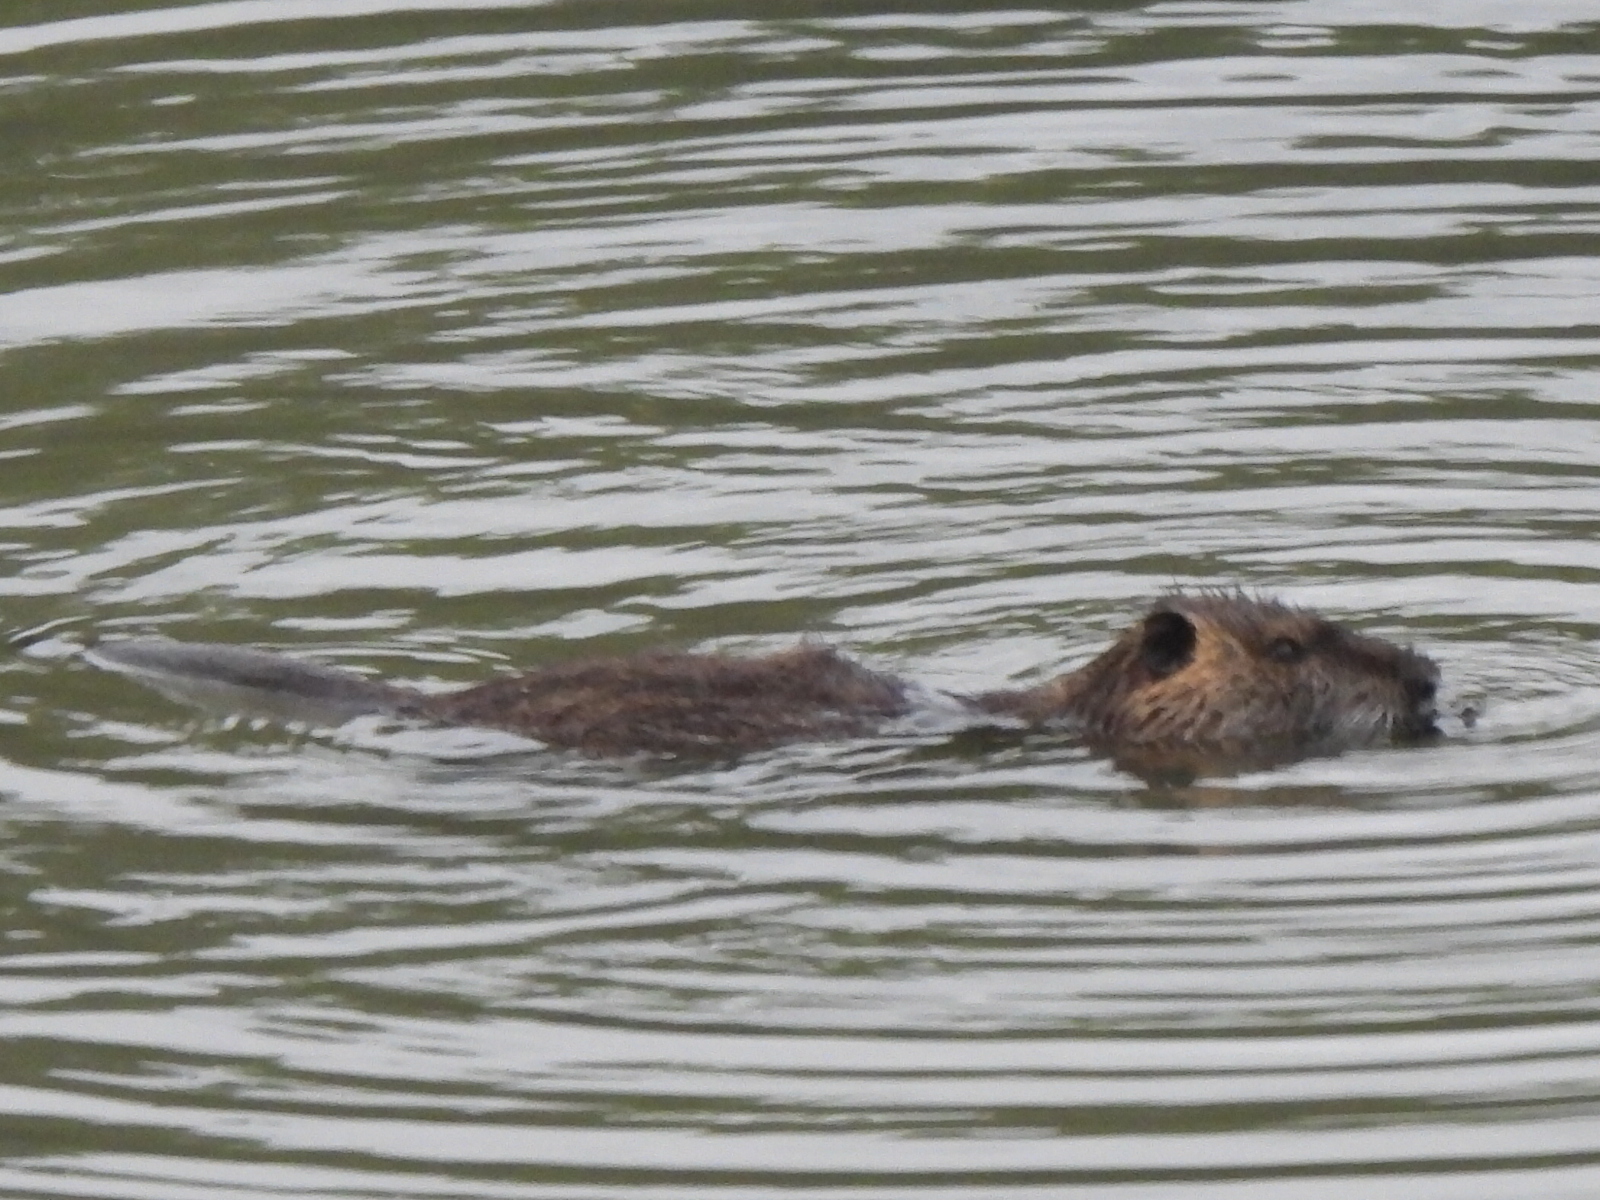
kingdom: Animalia
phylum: Chordata
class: Mammalia
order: Rodentia
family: Myocastoridae
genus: Myocastor
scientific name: Myocastor coypus
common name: Coypu
